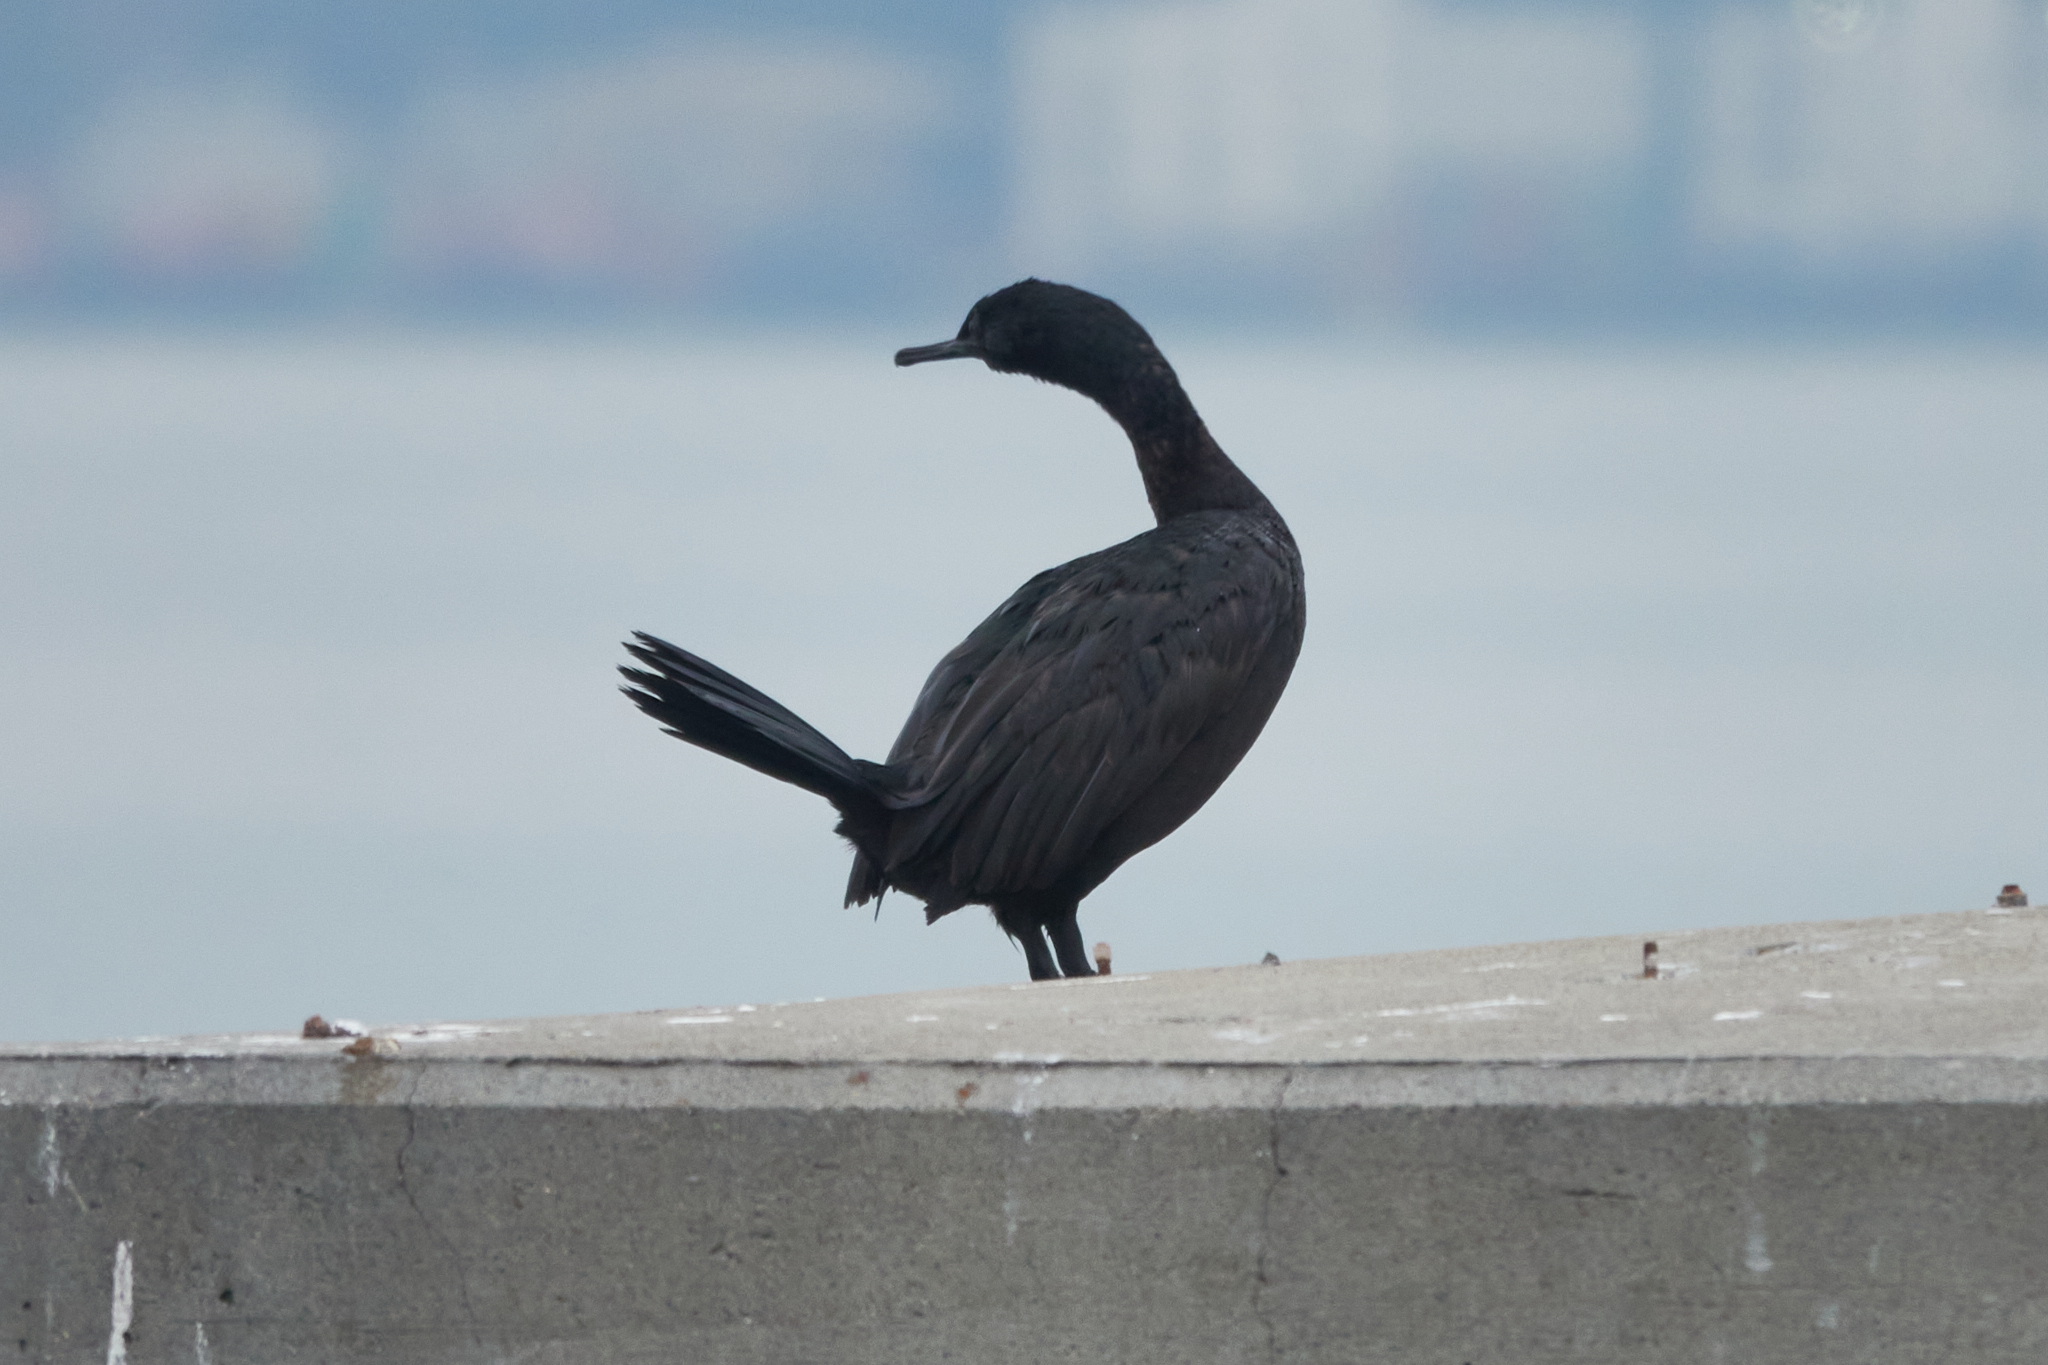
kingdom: Animalia
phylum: Chordata
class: Aves
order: Suliformes
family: Phalacrocoracidae
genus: Phalacrocorax
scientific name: Phalacrocorax pelagicus
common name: Pelagic cormorant
